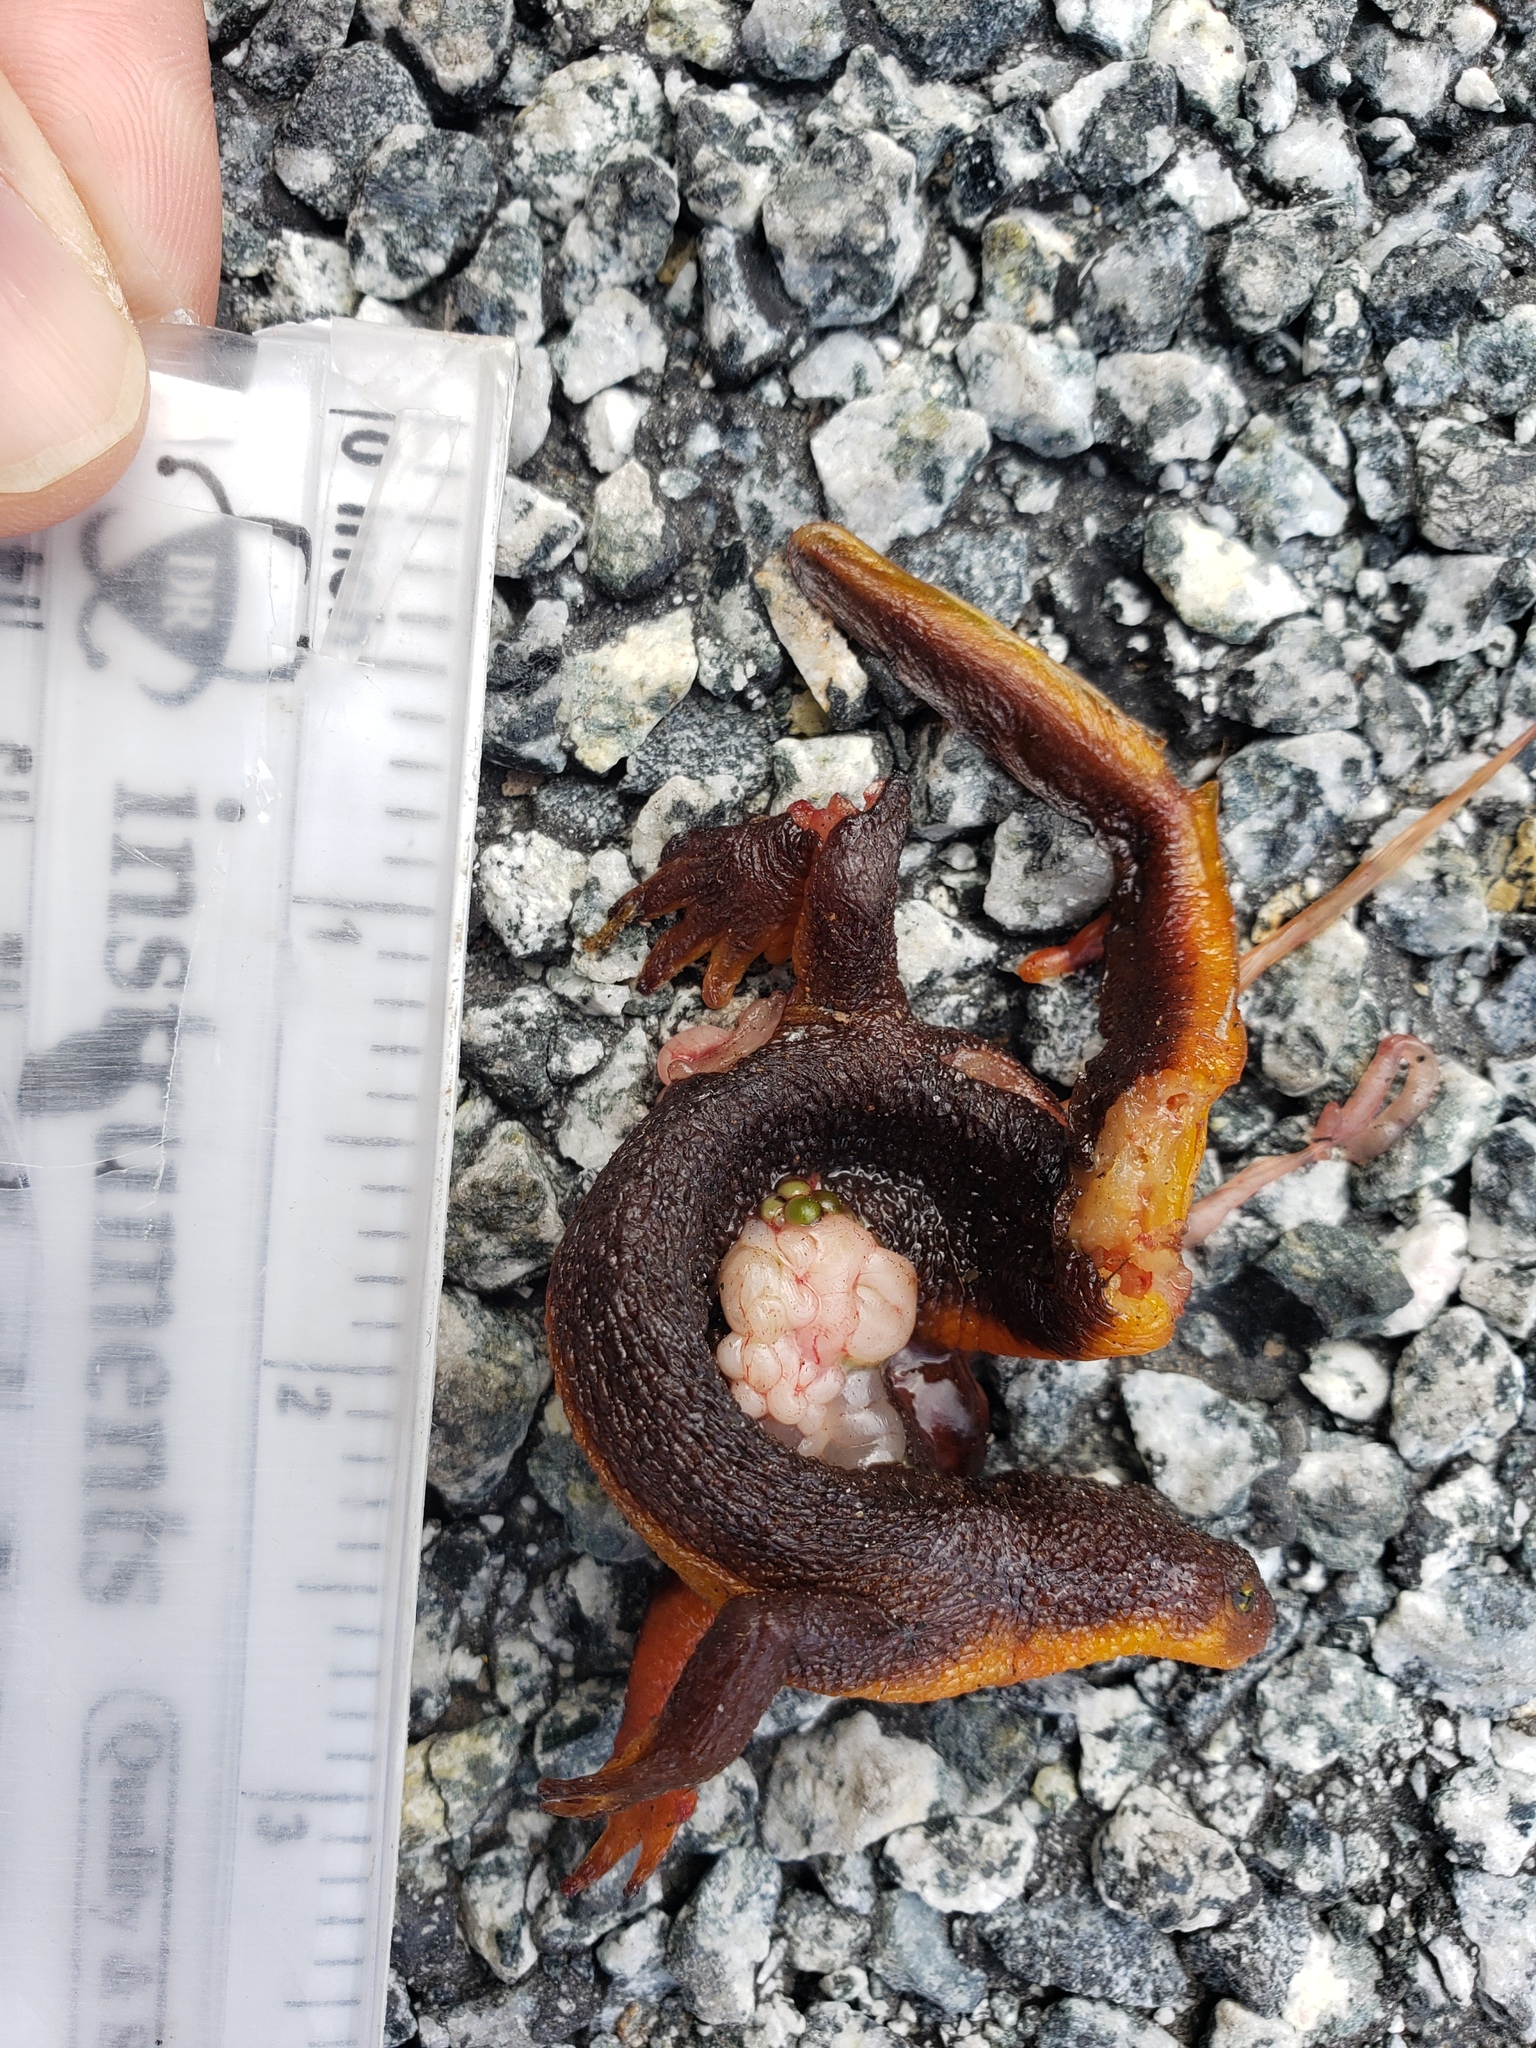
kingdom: Animalia
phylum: Chordata
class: Amphibia
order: Caudata
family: Salamandridae
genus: Taricha
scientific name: Taricha
